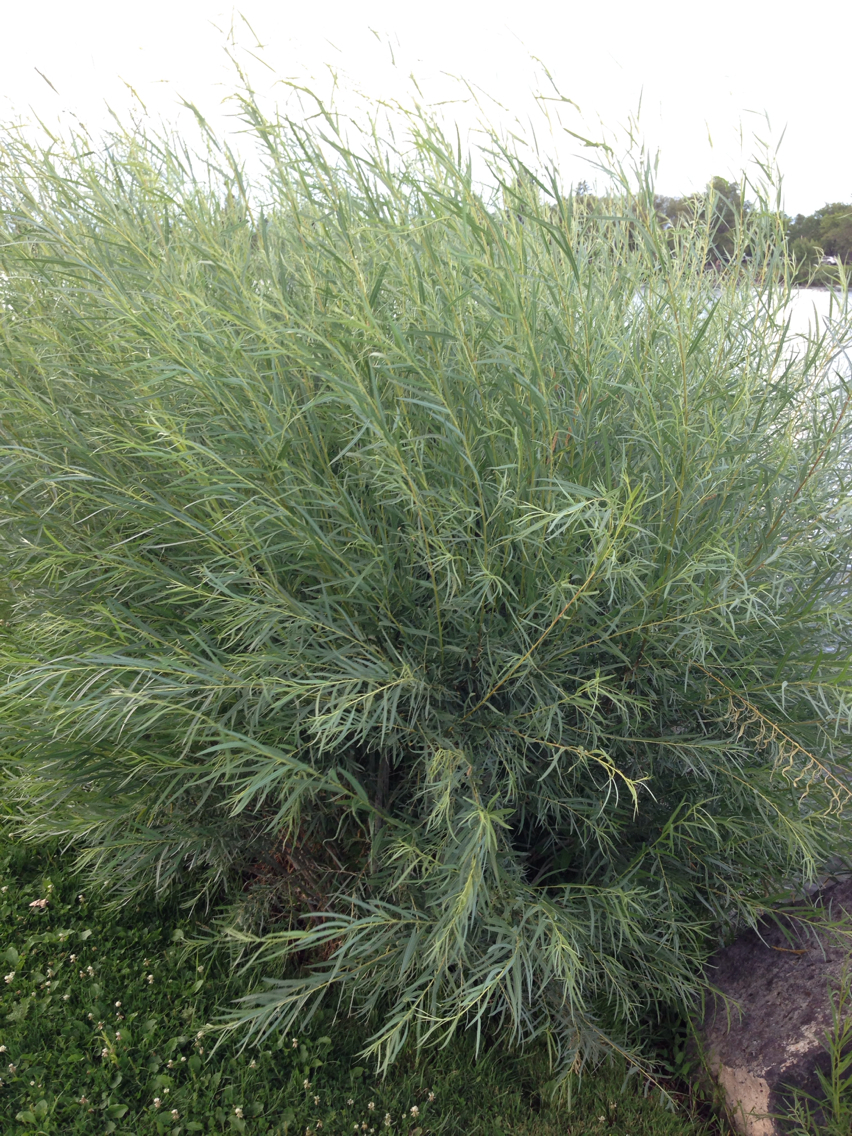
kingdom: Plantae
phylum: Tracheophyta
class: Magnoliopsida
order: Malpighiales
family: Salicaceae
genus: Salix
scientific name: Salix exigua
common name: Coyote willow
